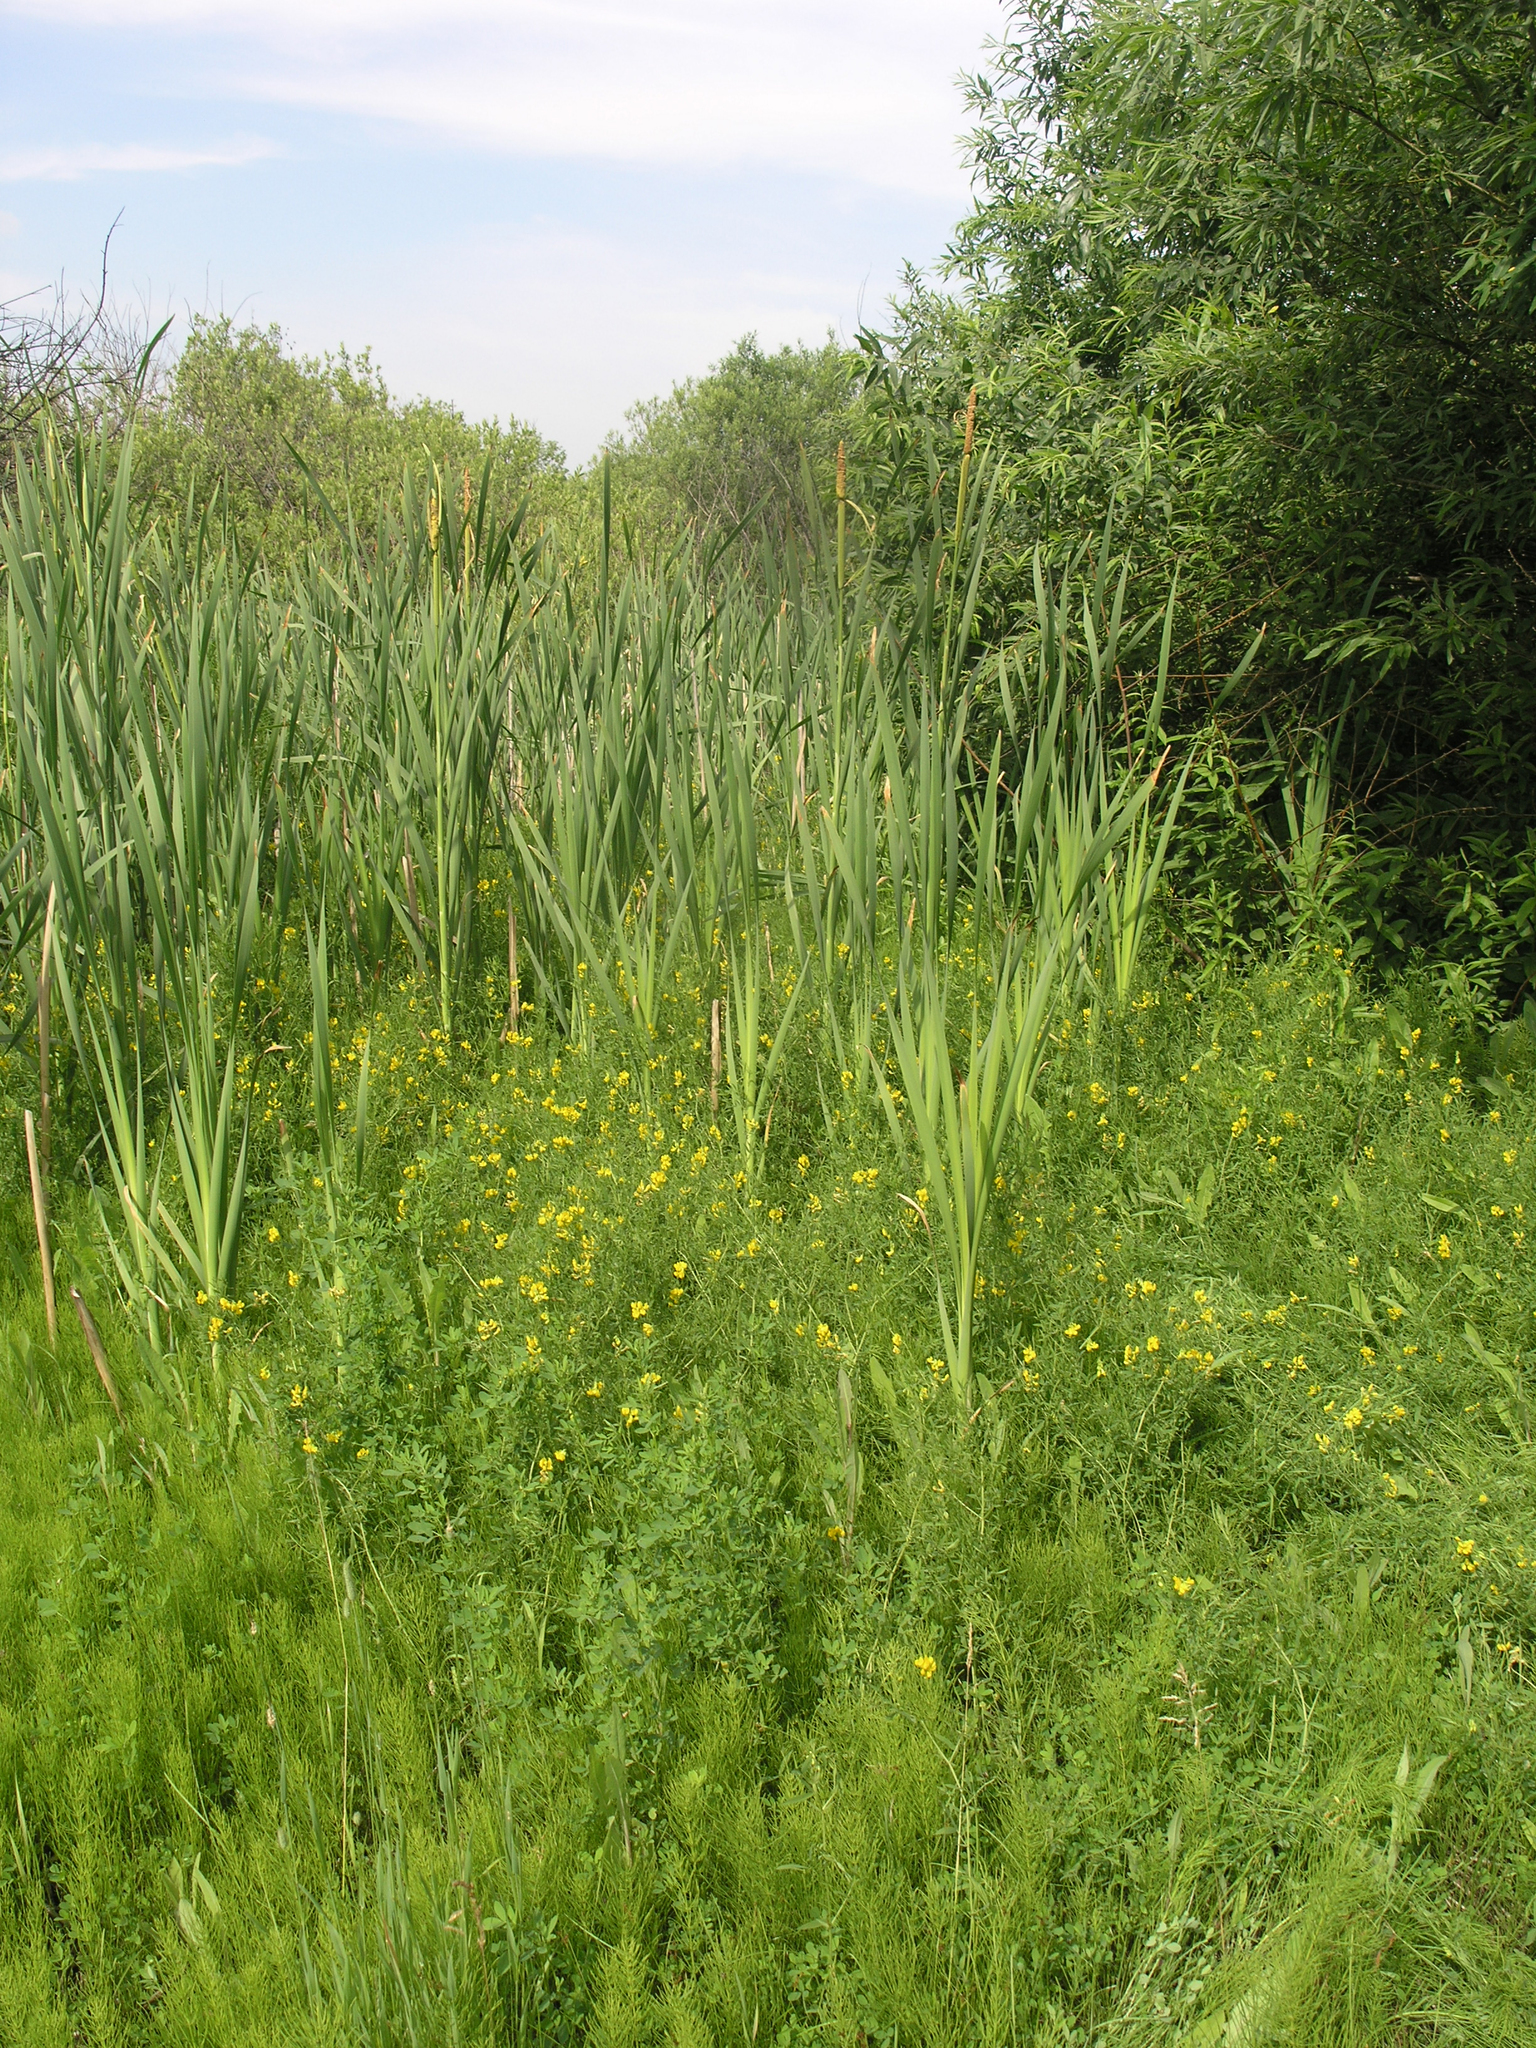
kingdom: Plantae
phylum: Tracheophyta
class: Liliopsida
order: Poales
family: Typhaceae
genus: Typha
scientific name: Typha latifolia
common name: Broadleaf cattail
